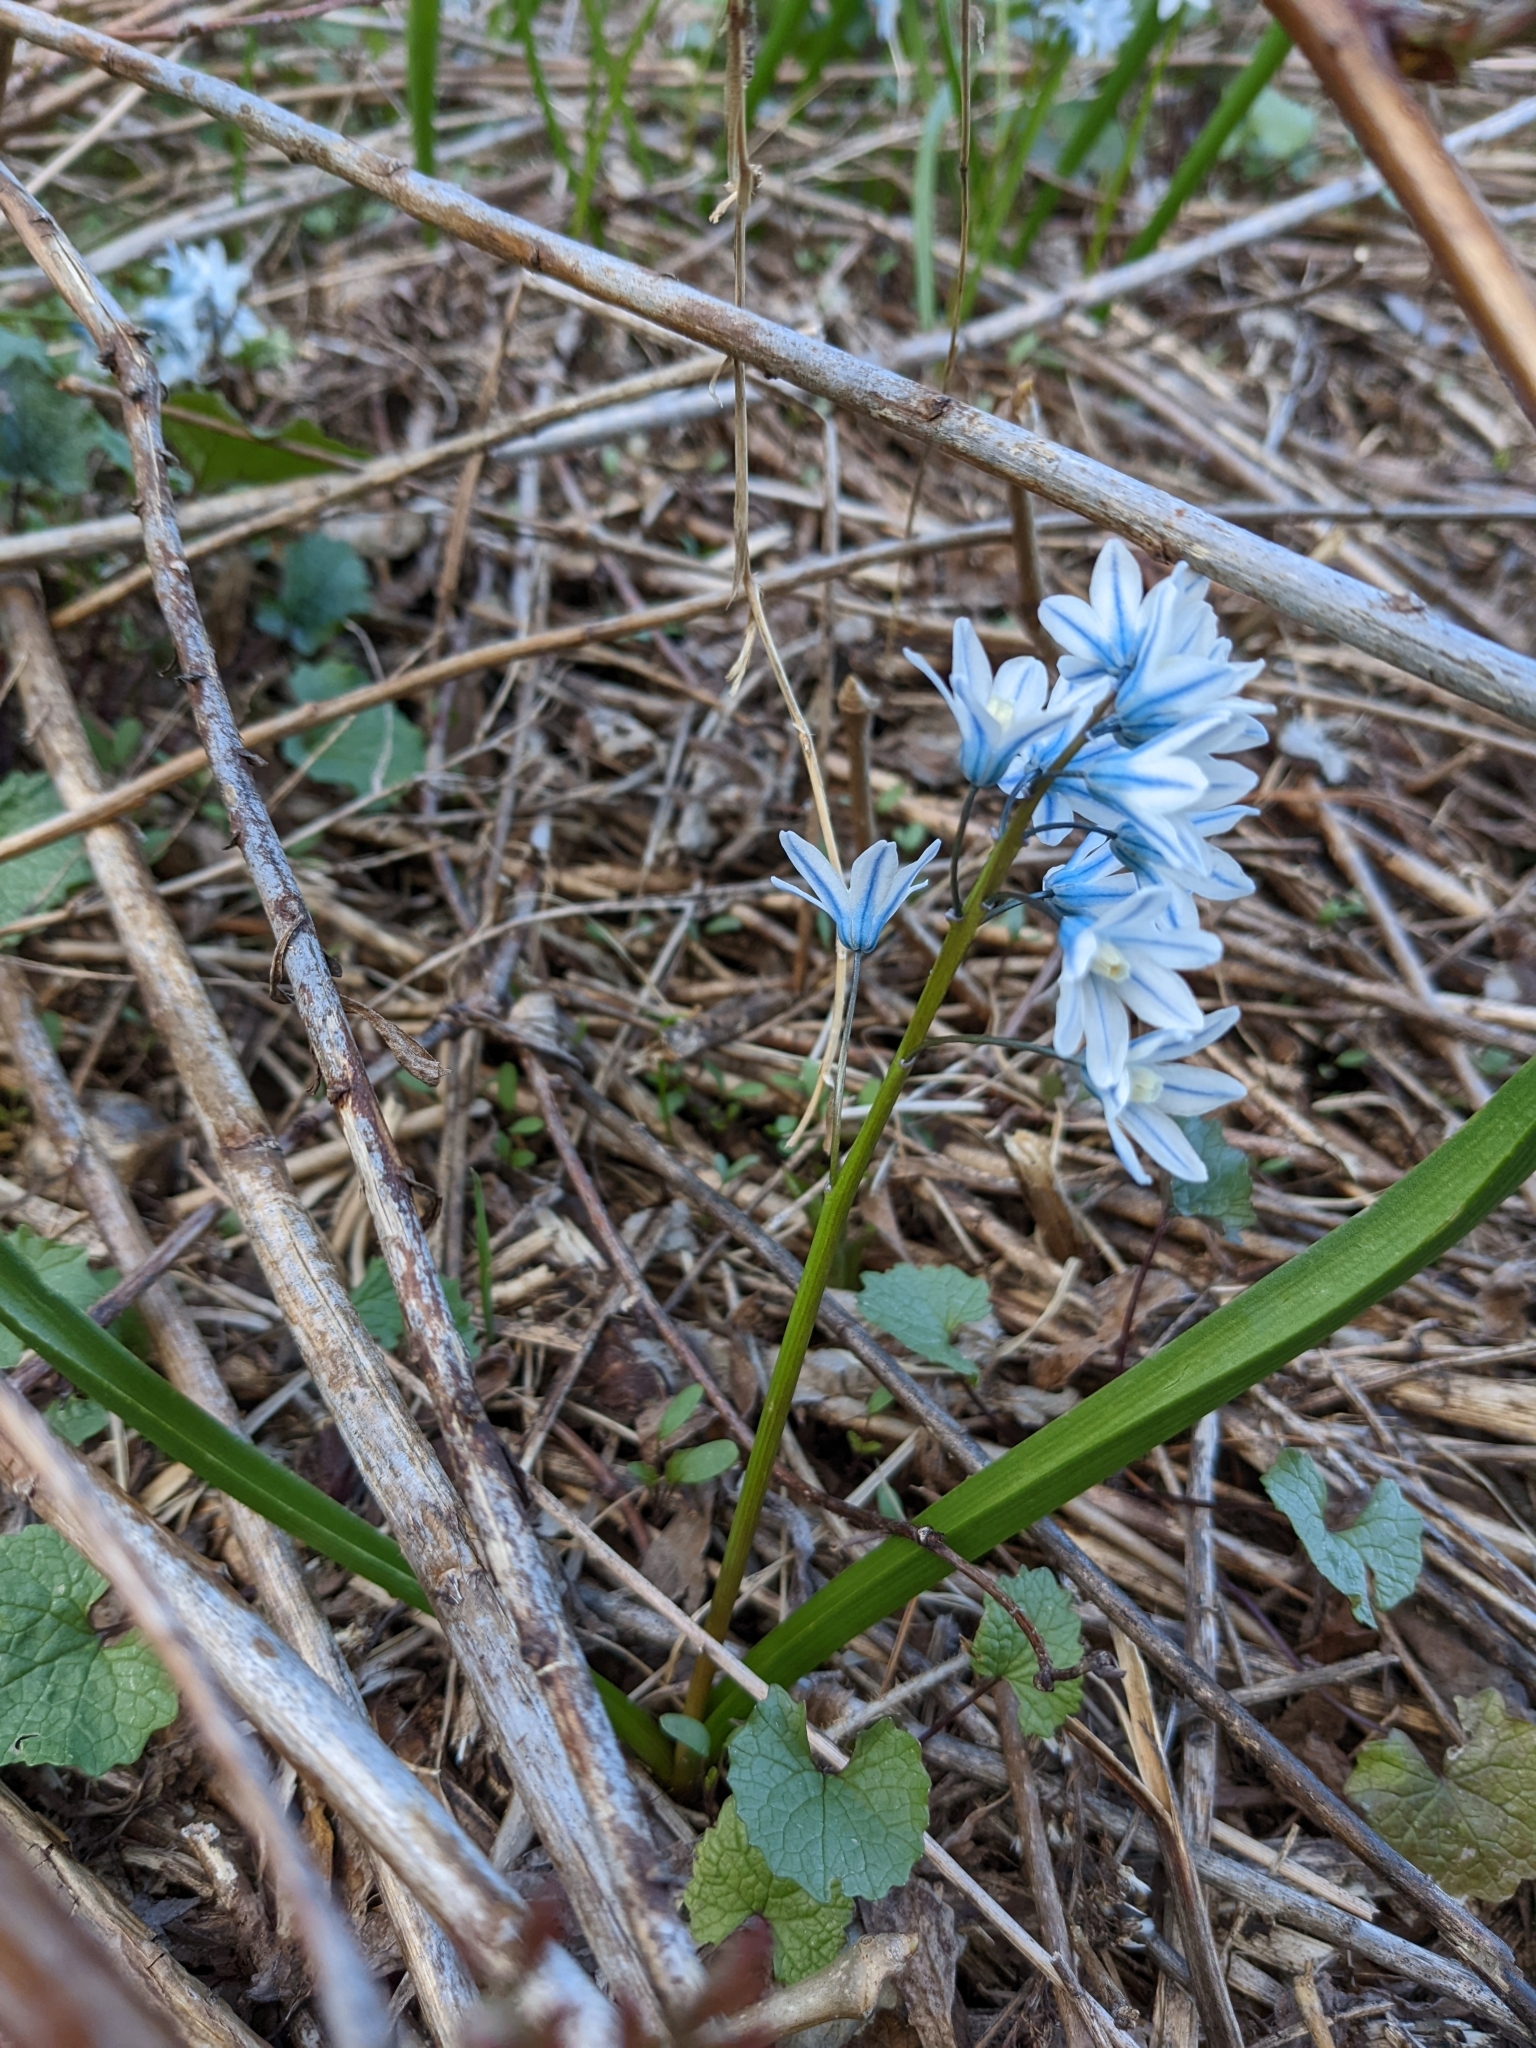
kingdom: Plantae
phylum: Tracheophyta
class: Liliopsida
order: Asparagales
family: Asparagaceae
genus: Puschkinia
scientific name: Puschkinia scilloides
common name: Striped squill
